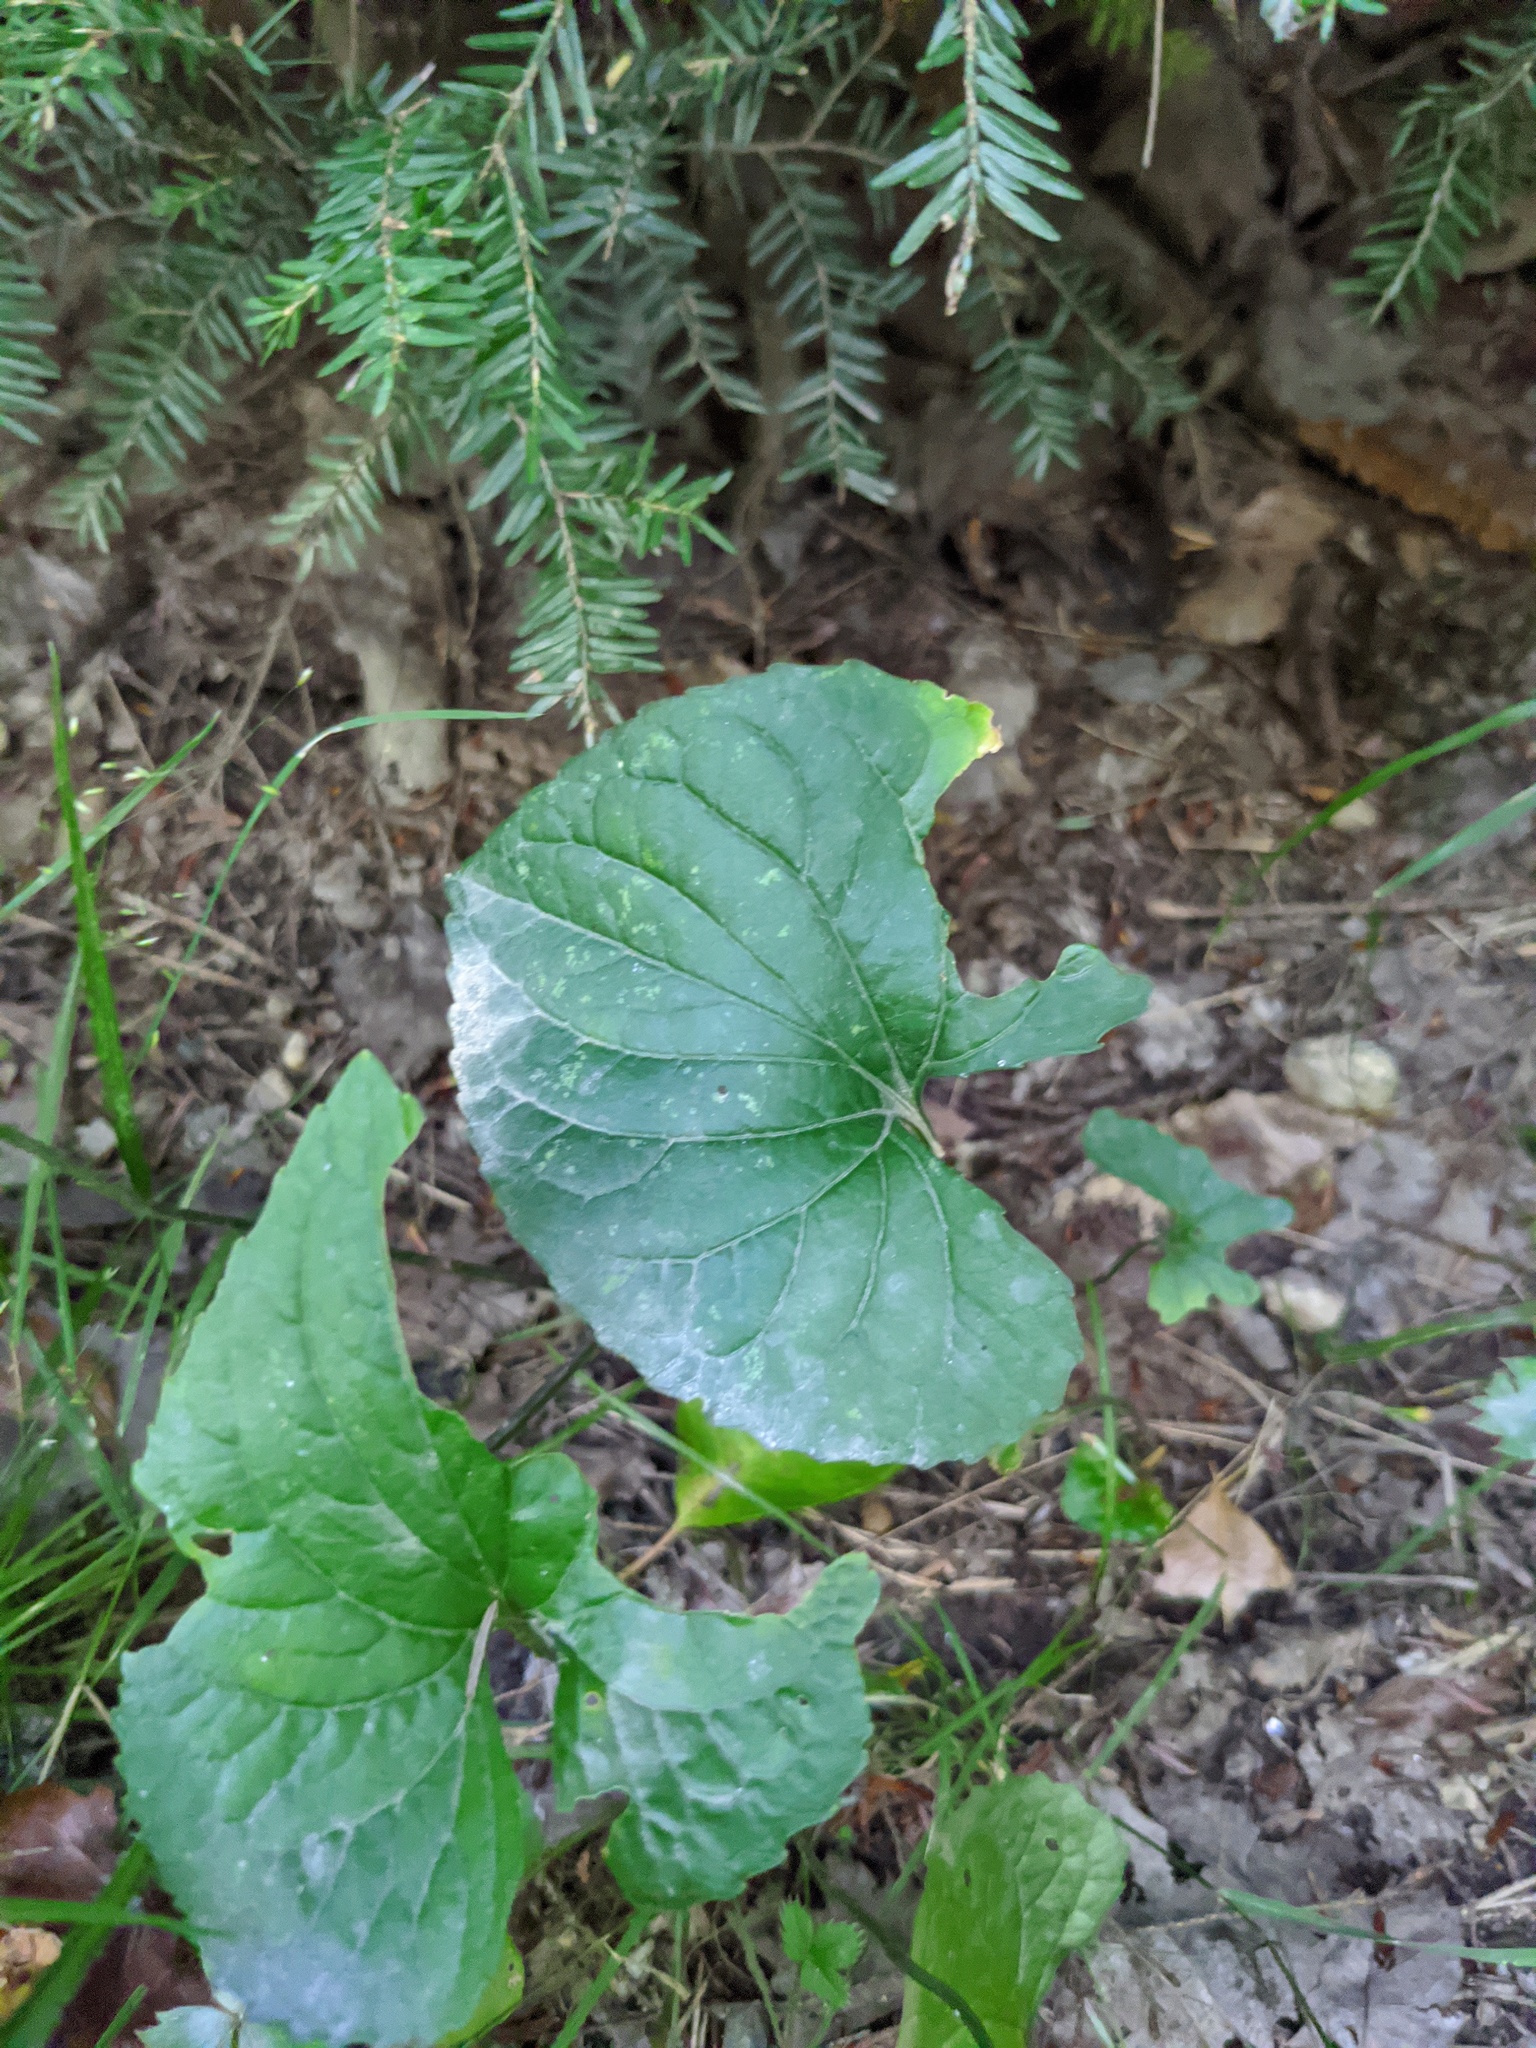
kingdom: Plantae
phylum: Tracheophyta
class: Pinopsida
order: Pinales
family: Pinaceae
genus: Tsuga
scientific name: Tsuga canadensis
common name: Eastern hemlock
